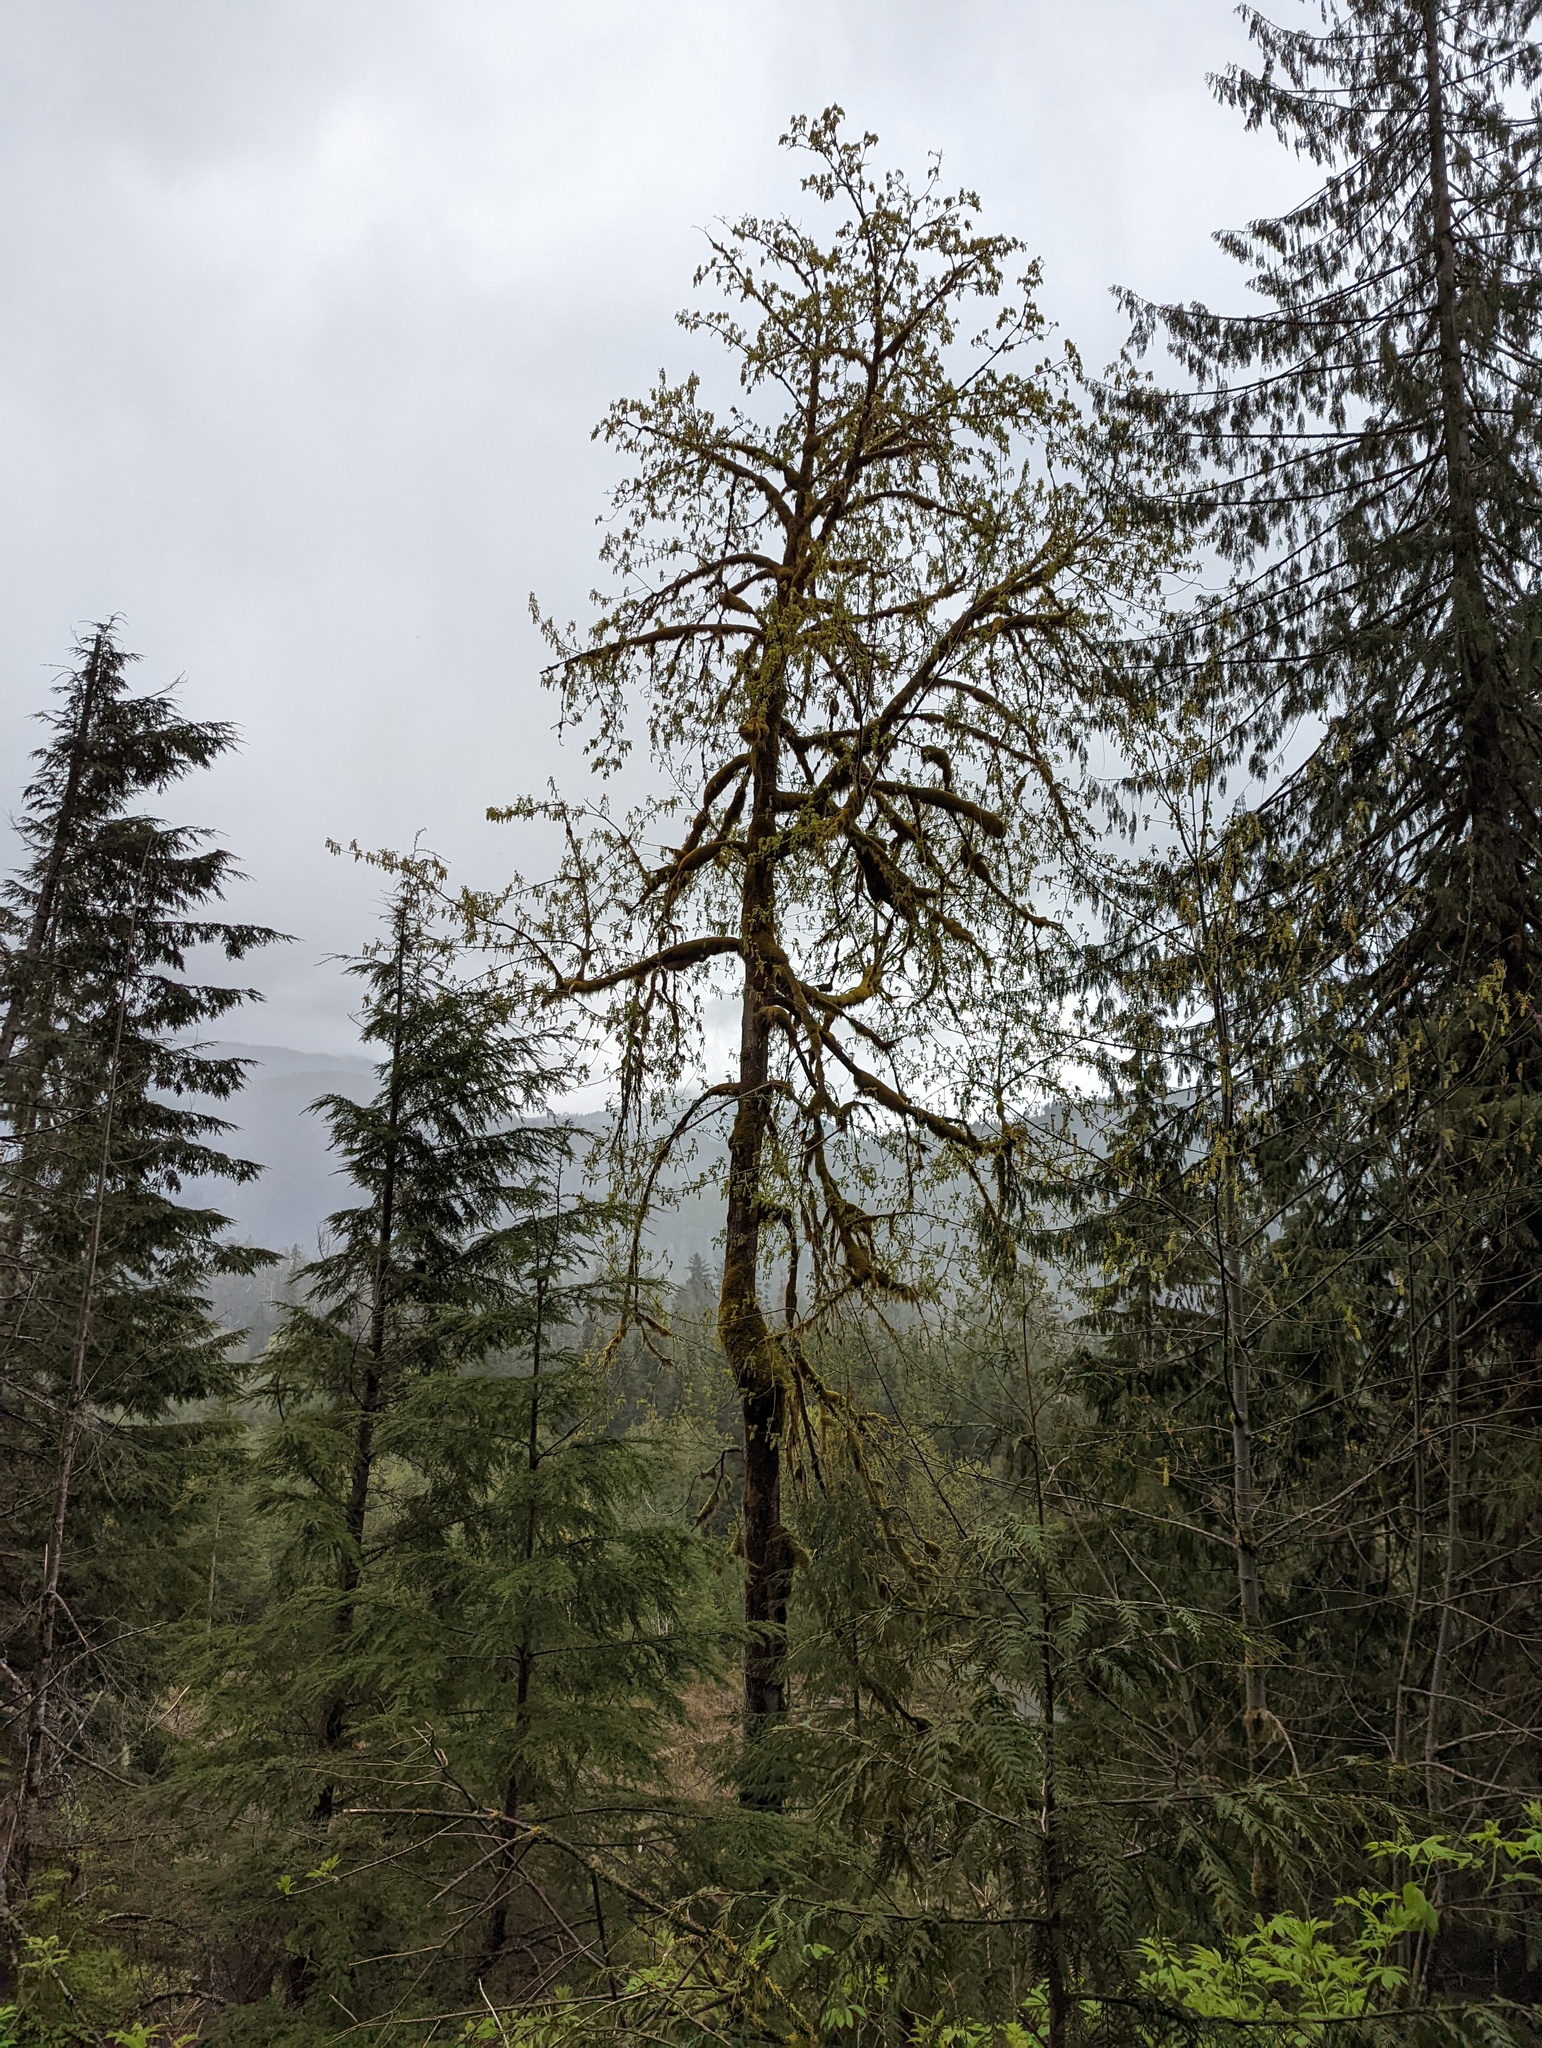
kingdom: Plantae
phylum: Tracheophyta
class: Magnoliopsida
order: Sapindales
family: Sapindaceae
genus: Acer
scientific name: Acer macrophyllum
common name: Oregon maple
